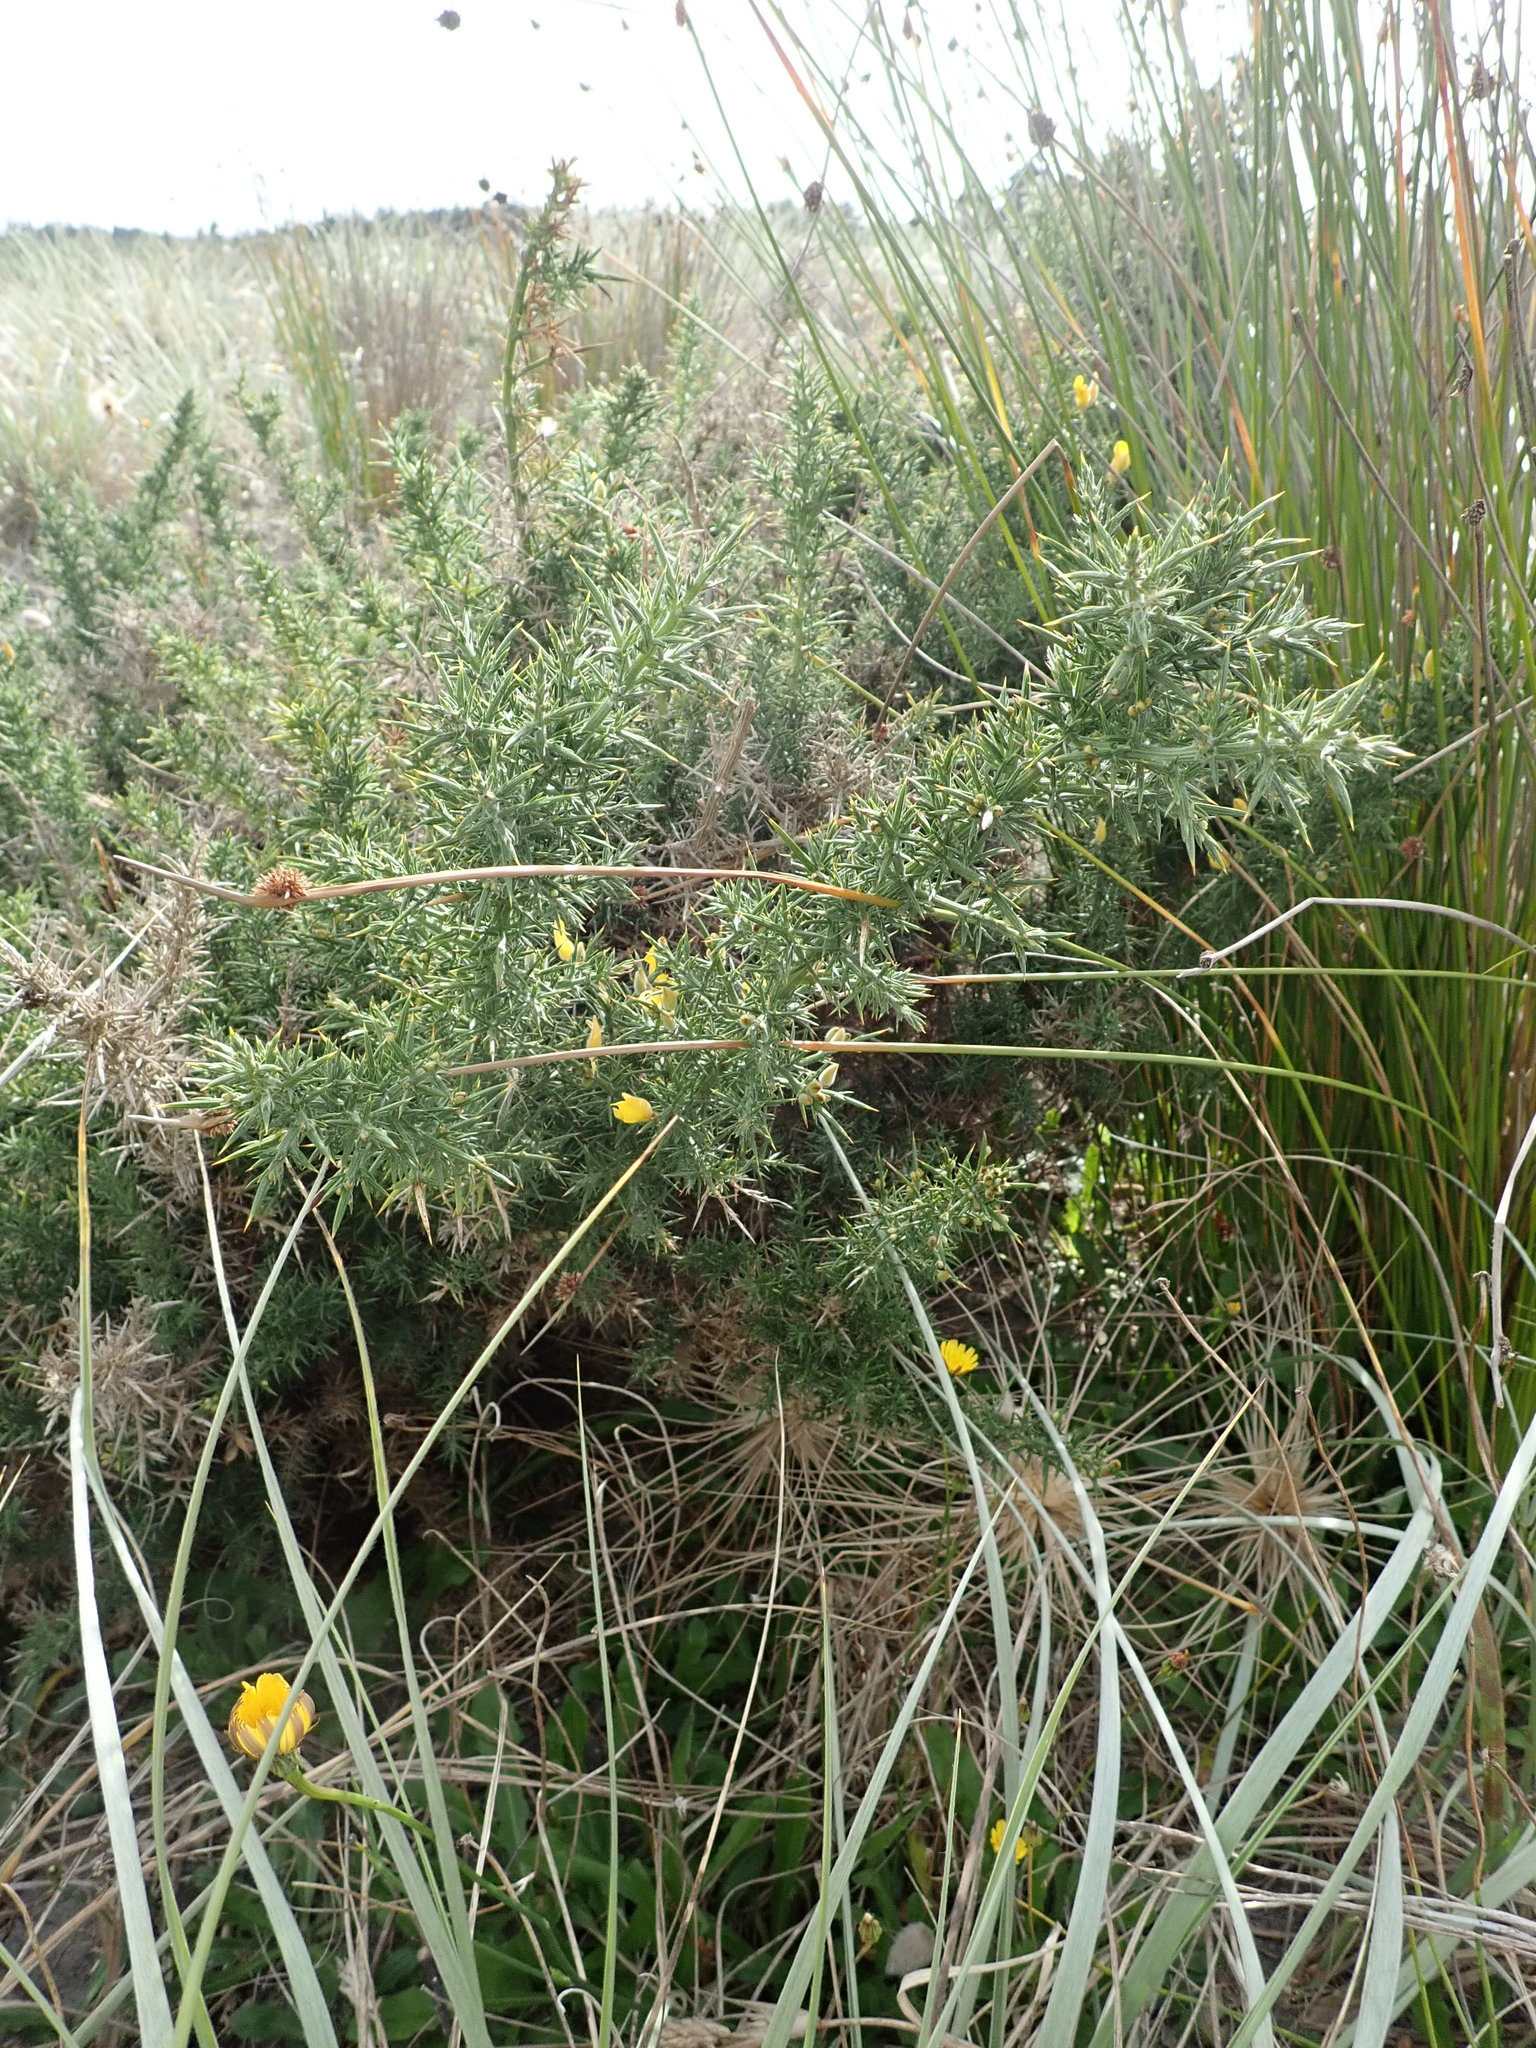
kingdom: Plantae
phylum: Tracheophyta
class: Magnoliopsida
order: Fabales
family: Fabaceae
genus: Ulex
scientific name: Ulex europaeus
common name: Common gorse
